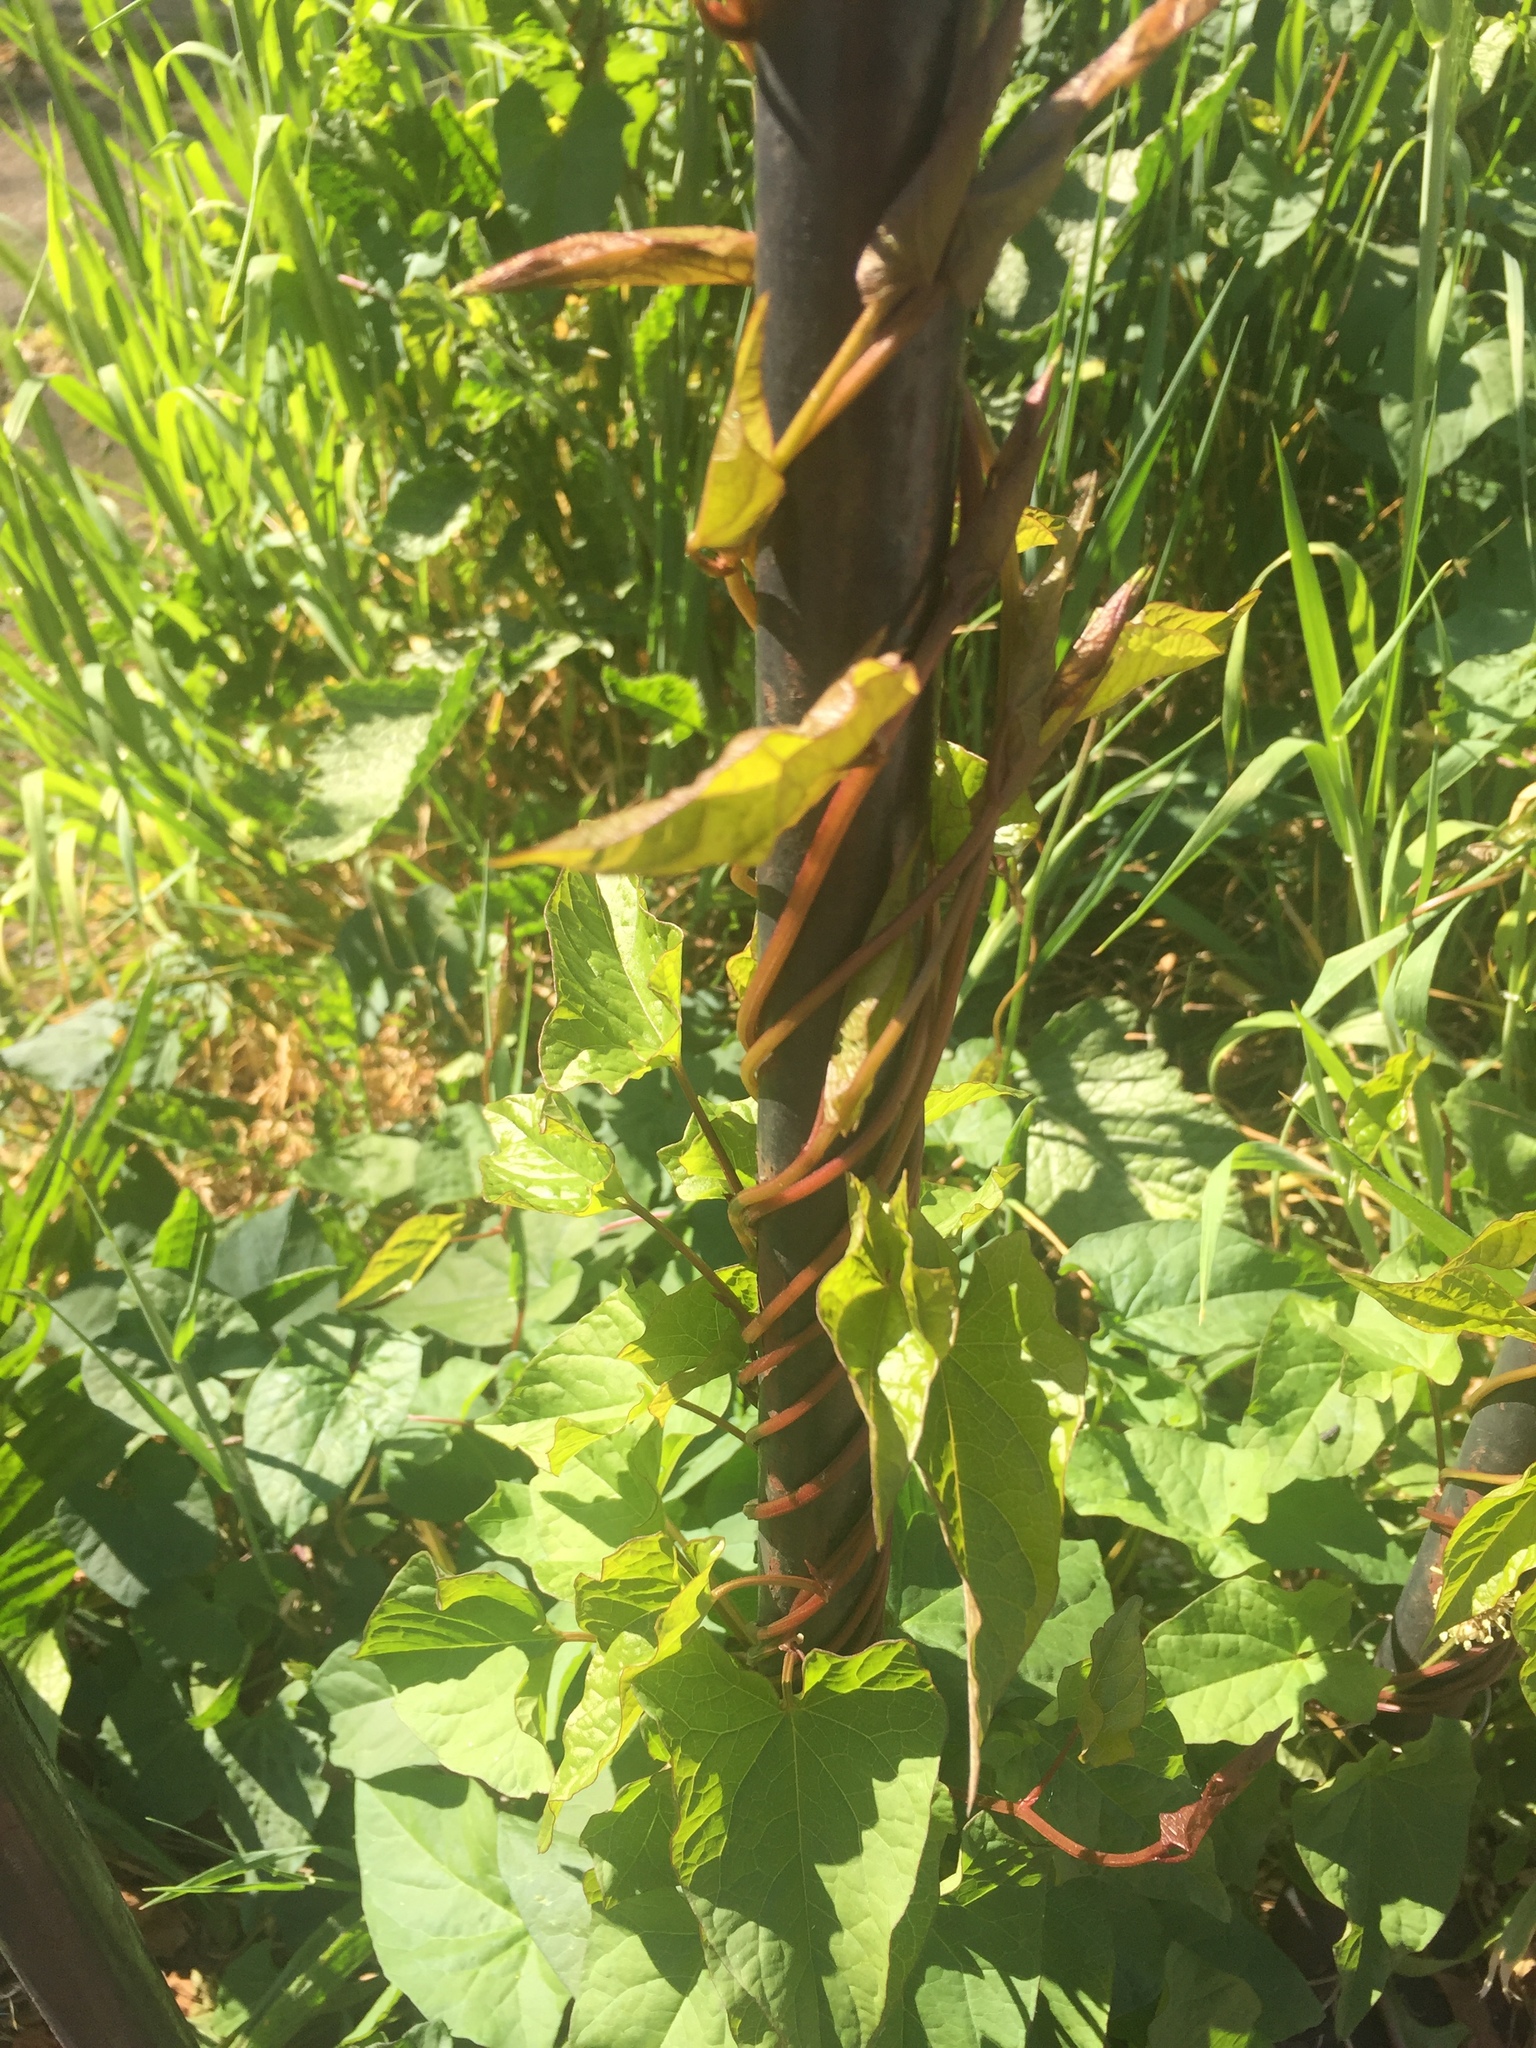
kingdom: Plantae
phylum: Tracheophyta
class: Magnoliopsida
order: Solanales
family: Convolvulaceae
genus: Calystegia
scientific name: Calystegia silvatica
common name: Large bindweed
